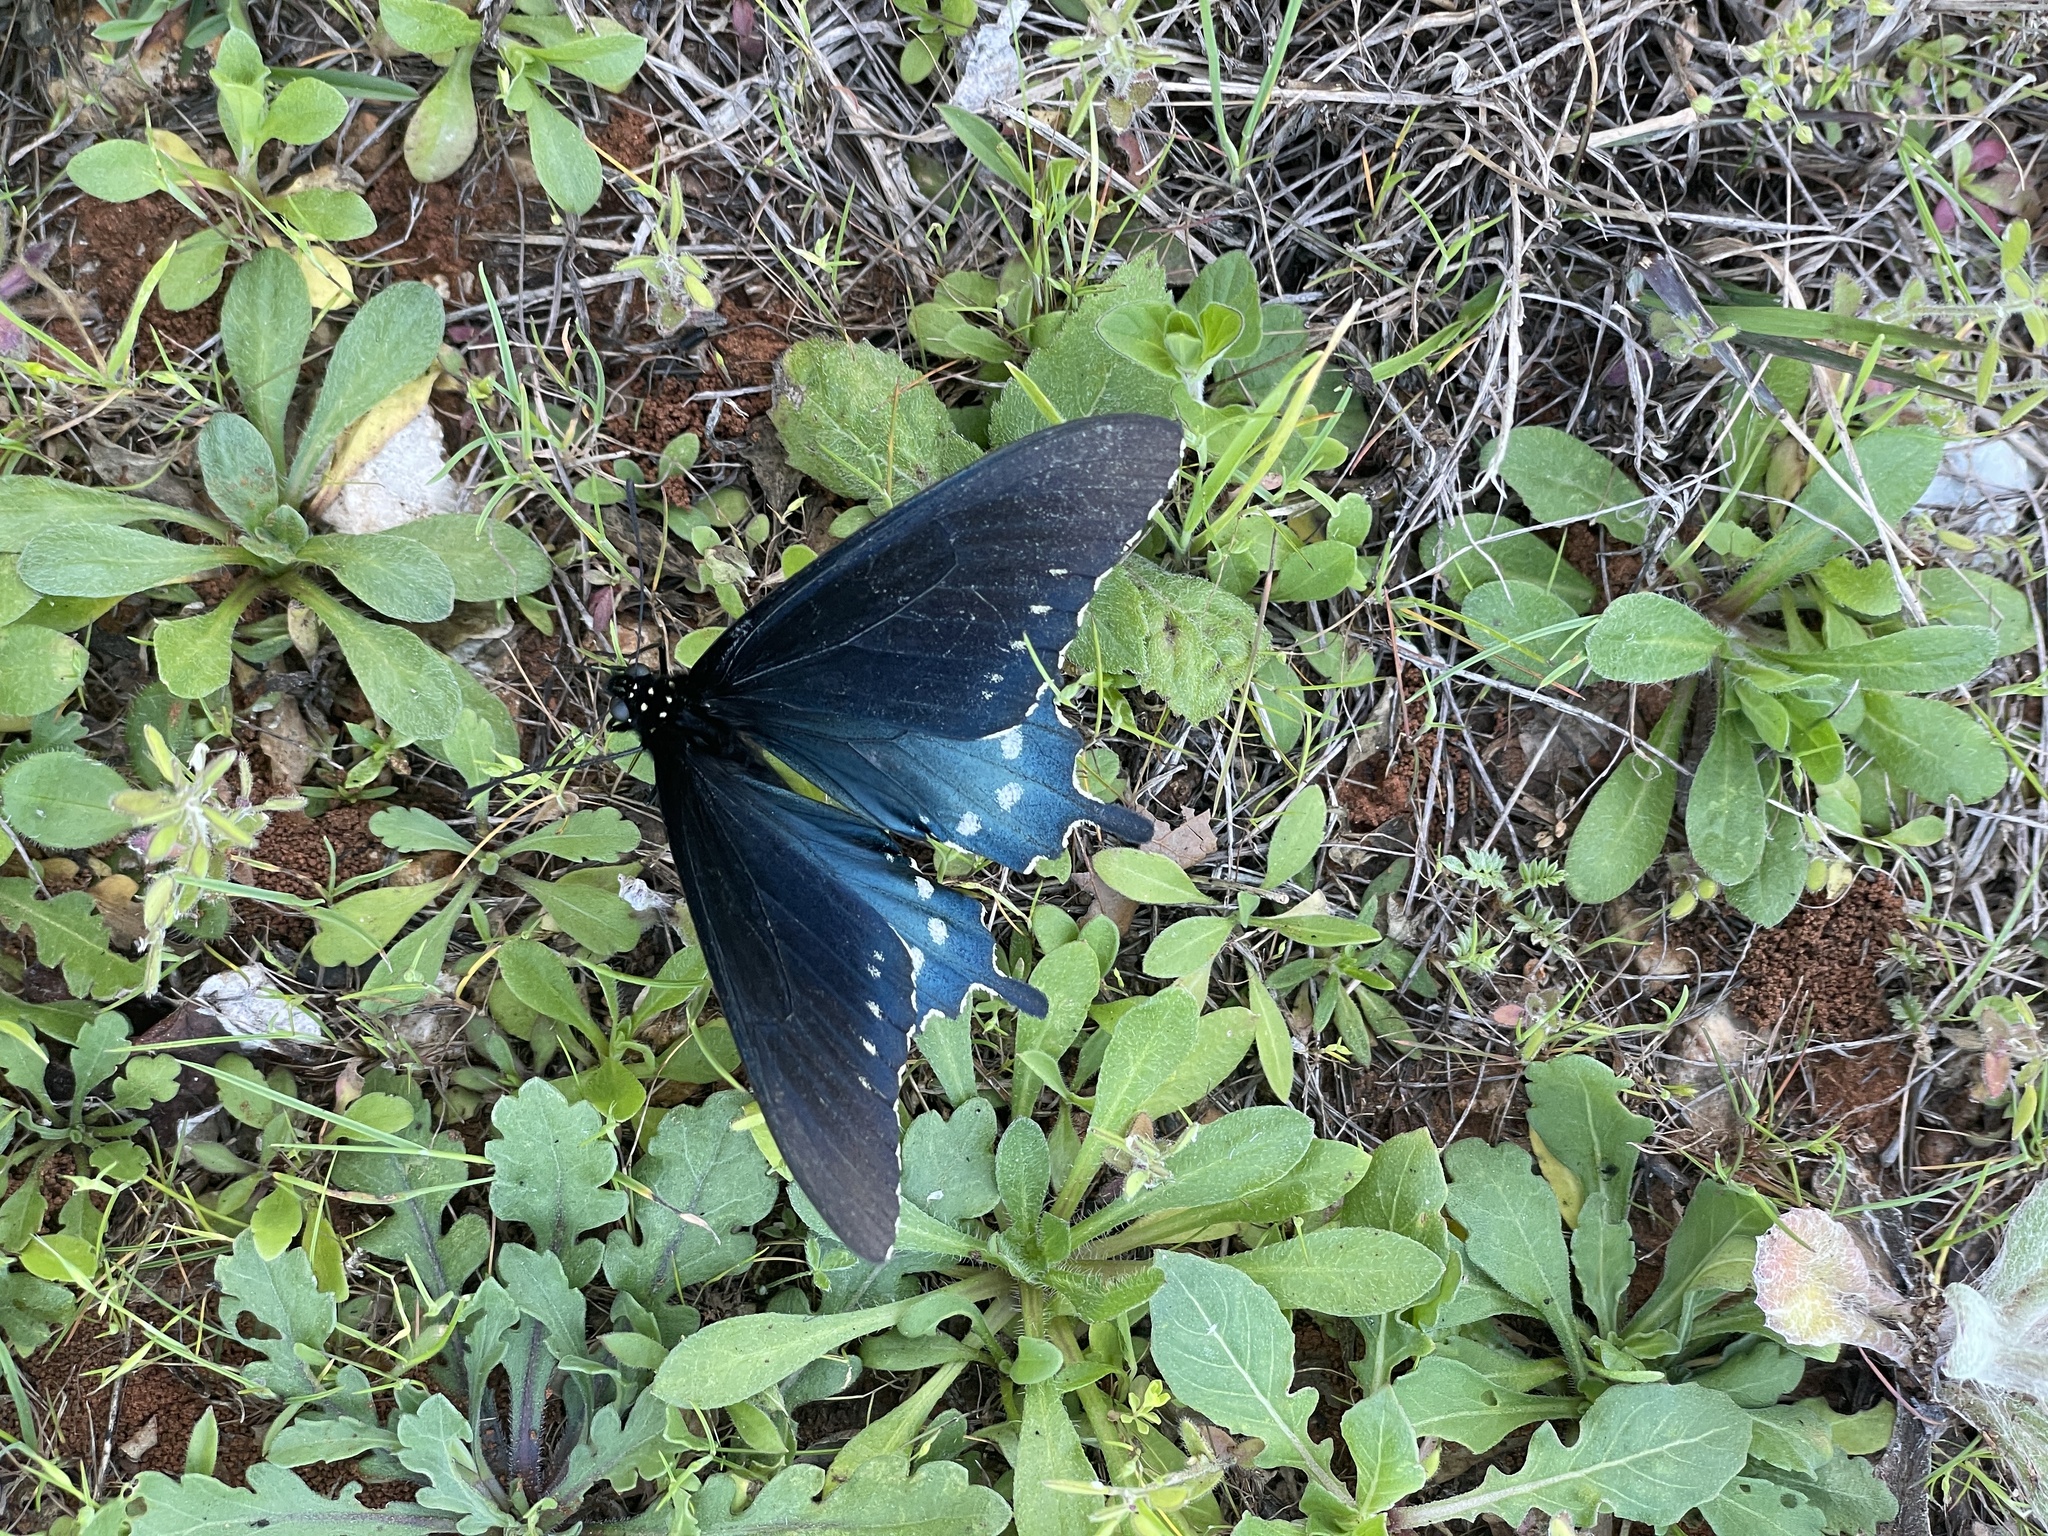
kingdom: Animalia
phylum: Arthropoda
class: Insecta
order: Lepidoptera
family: Papilionidae
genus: Battus
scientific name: Battus philenor
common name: Pipevine swallowtail
